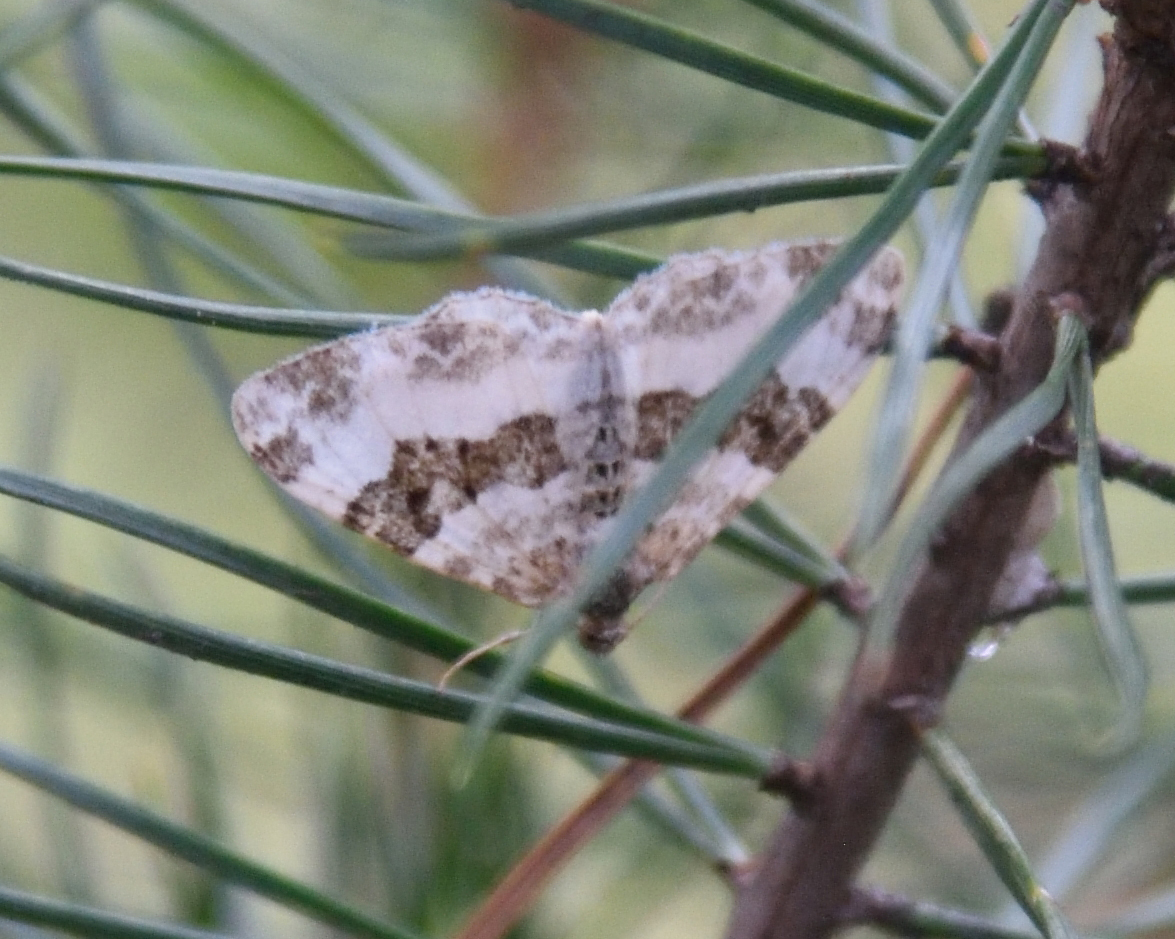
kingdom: Animalia
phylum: Arthropoda
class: Insecta
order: Lepidoptera
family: Geometridae
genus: Epirrhoe
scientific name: Epirrhoe rivata
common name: Wood carpet
